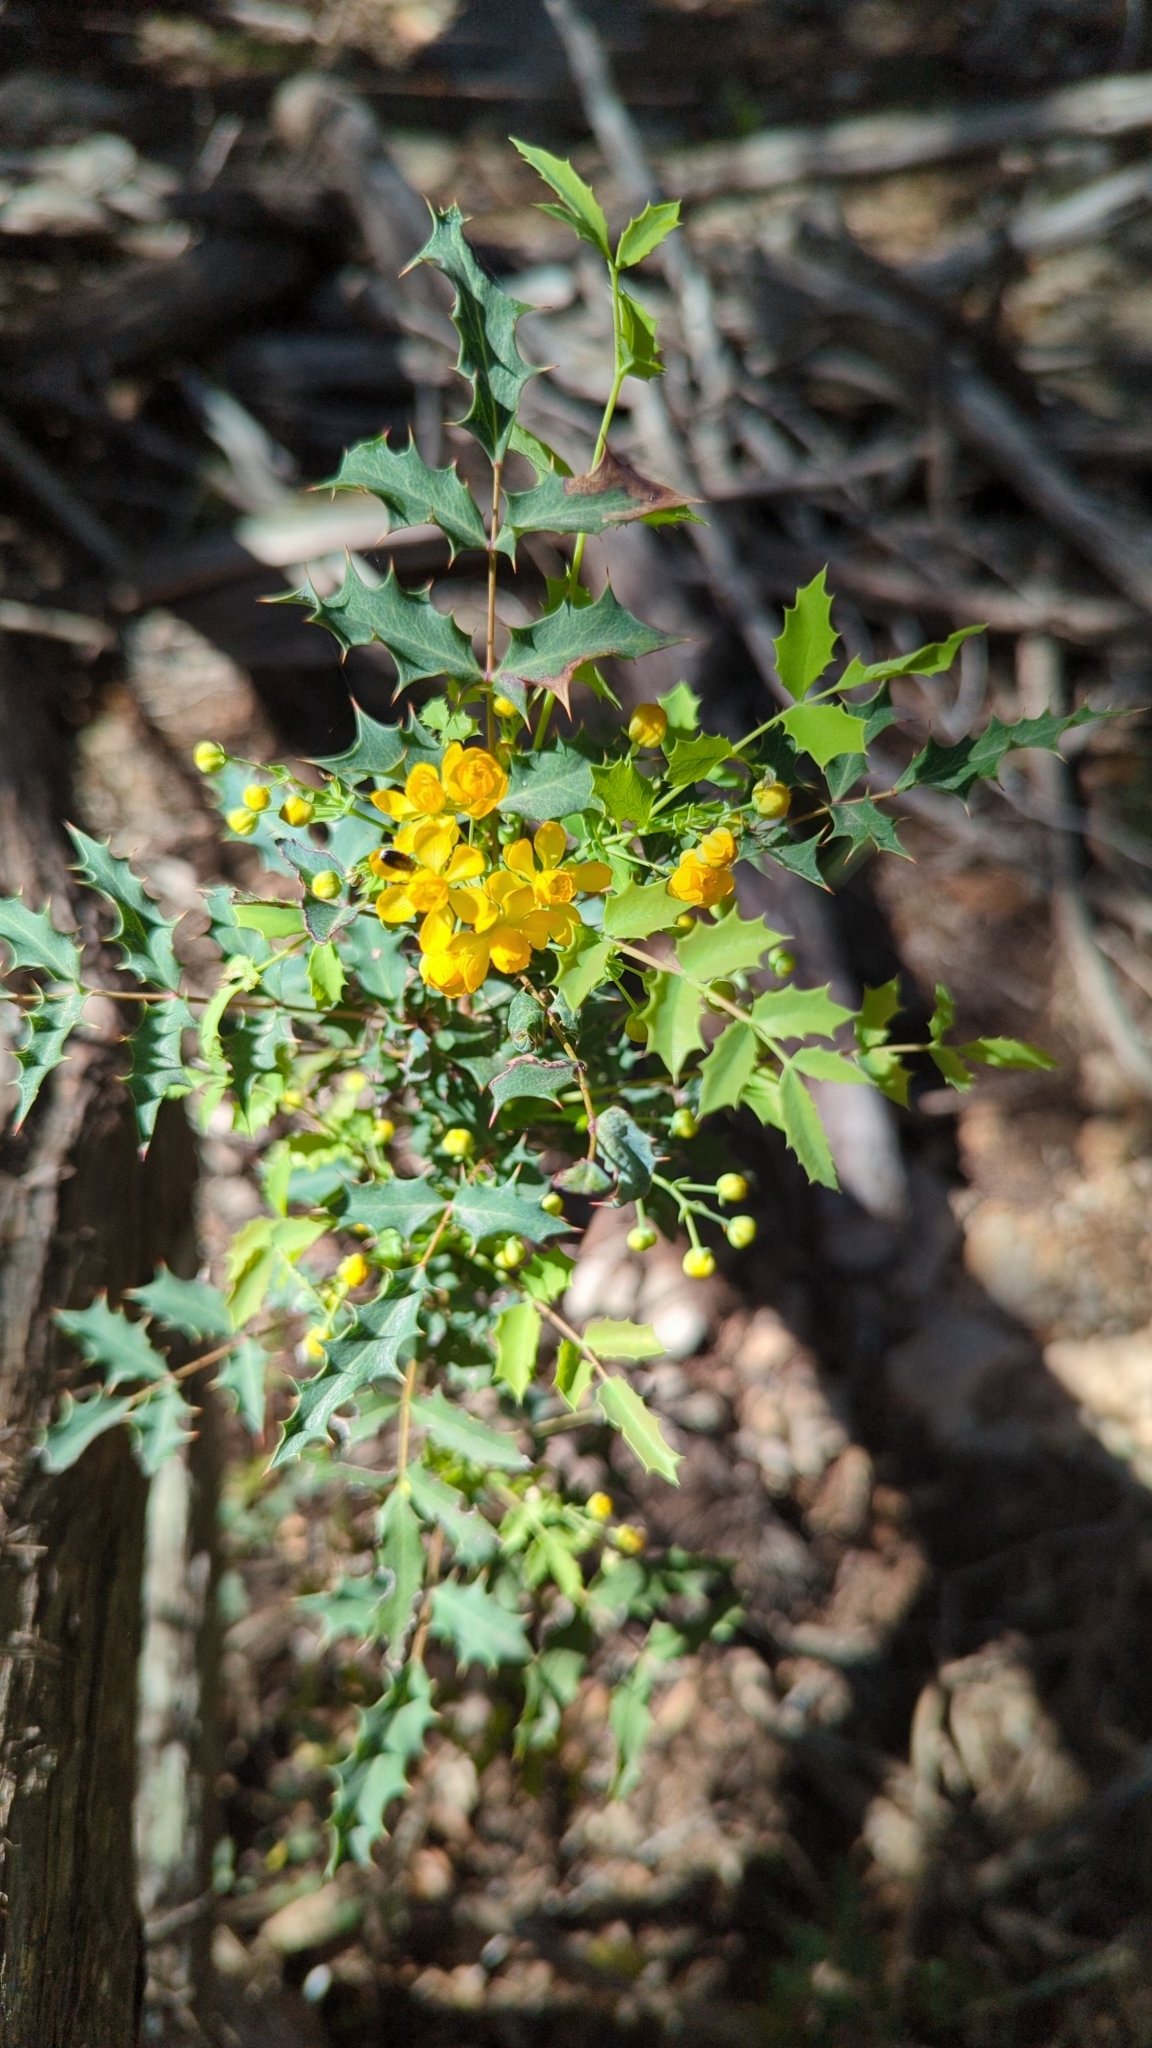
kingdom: Plantae
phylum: Tracheophyta
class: Magnoliopsida
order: Ranunculales
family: Berberidaceae
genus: Berberis
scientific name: Berberis swaseyi
